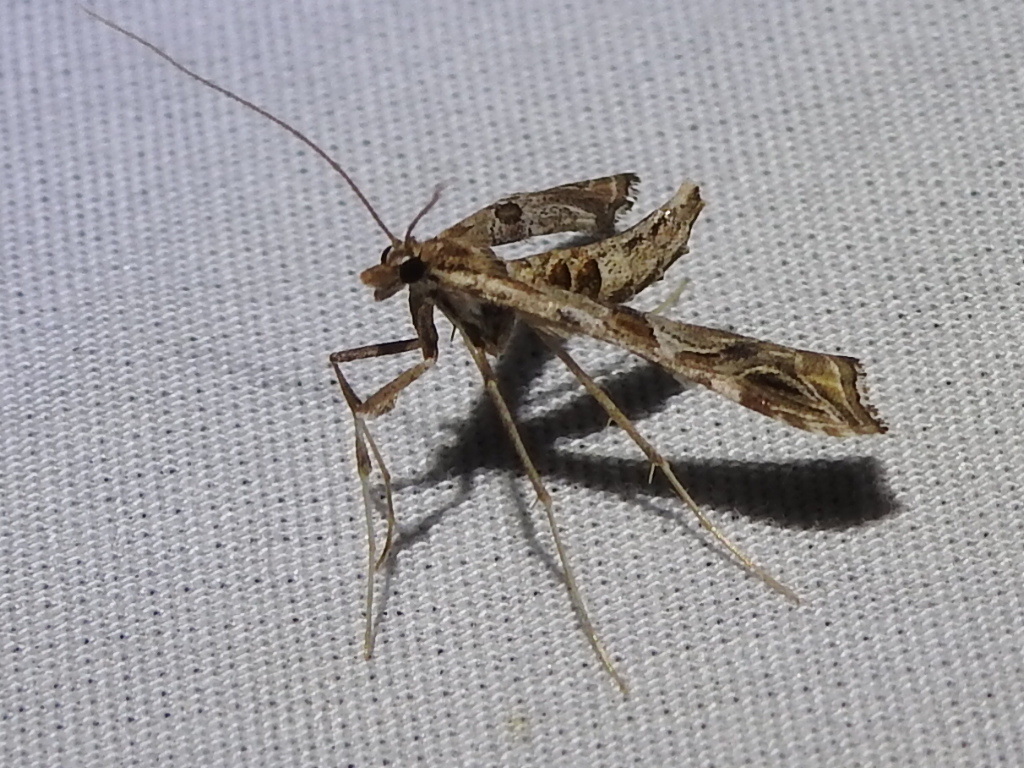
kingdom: Animalia
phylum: Arthropoda
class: Insecta
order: Lepidoptera
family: Crambidae
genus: Lineodes
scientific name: Lineodes interrupta
